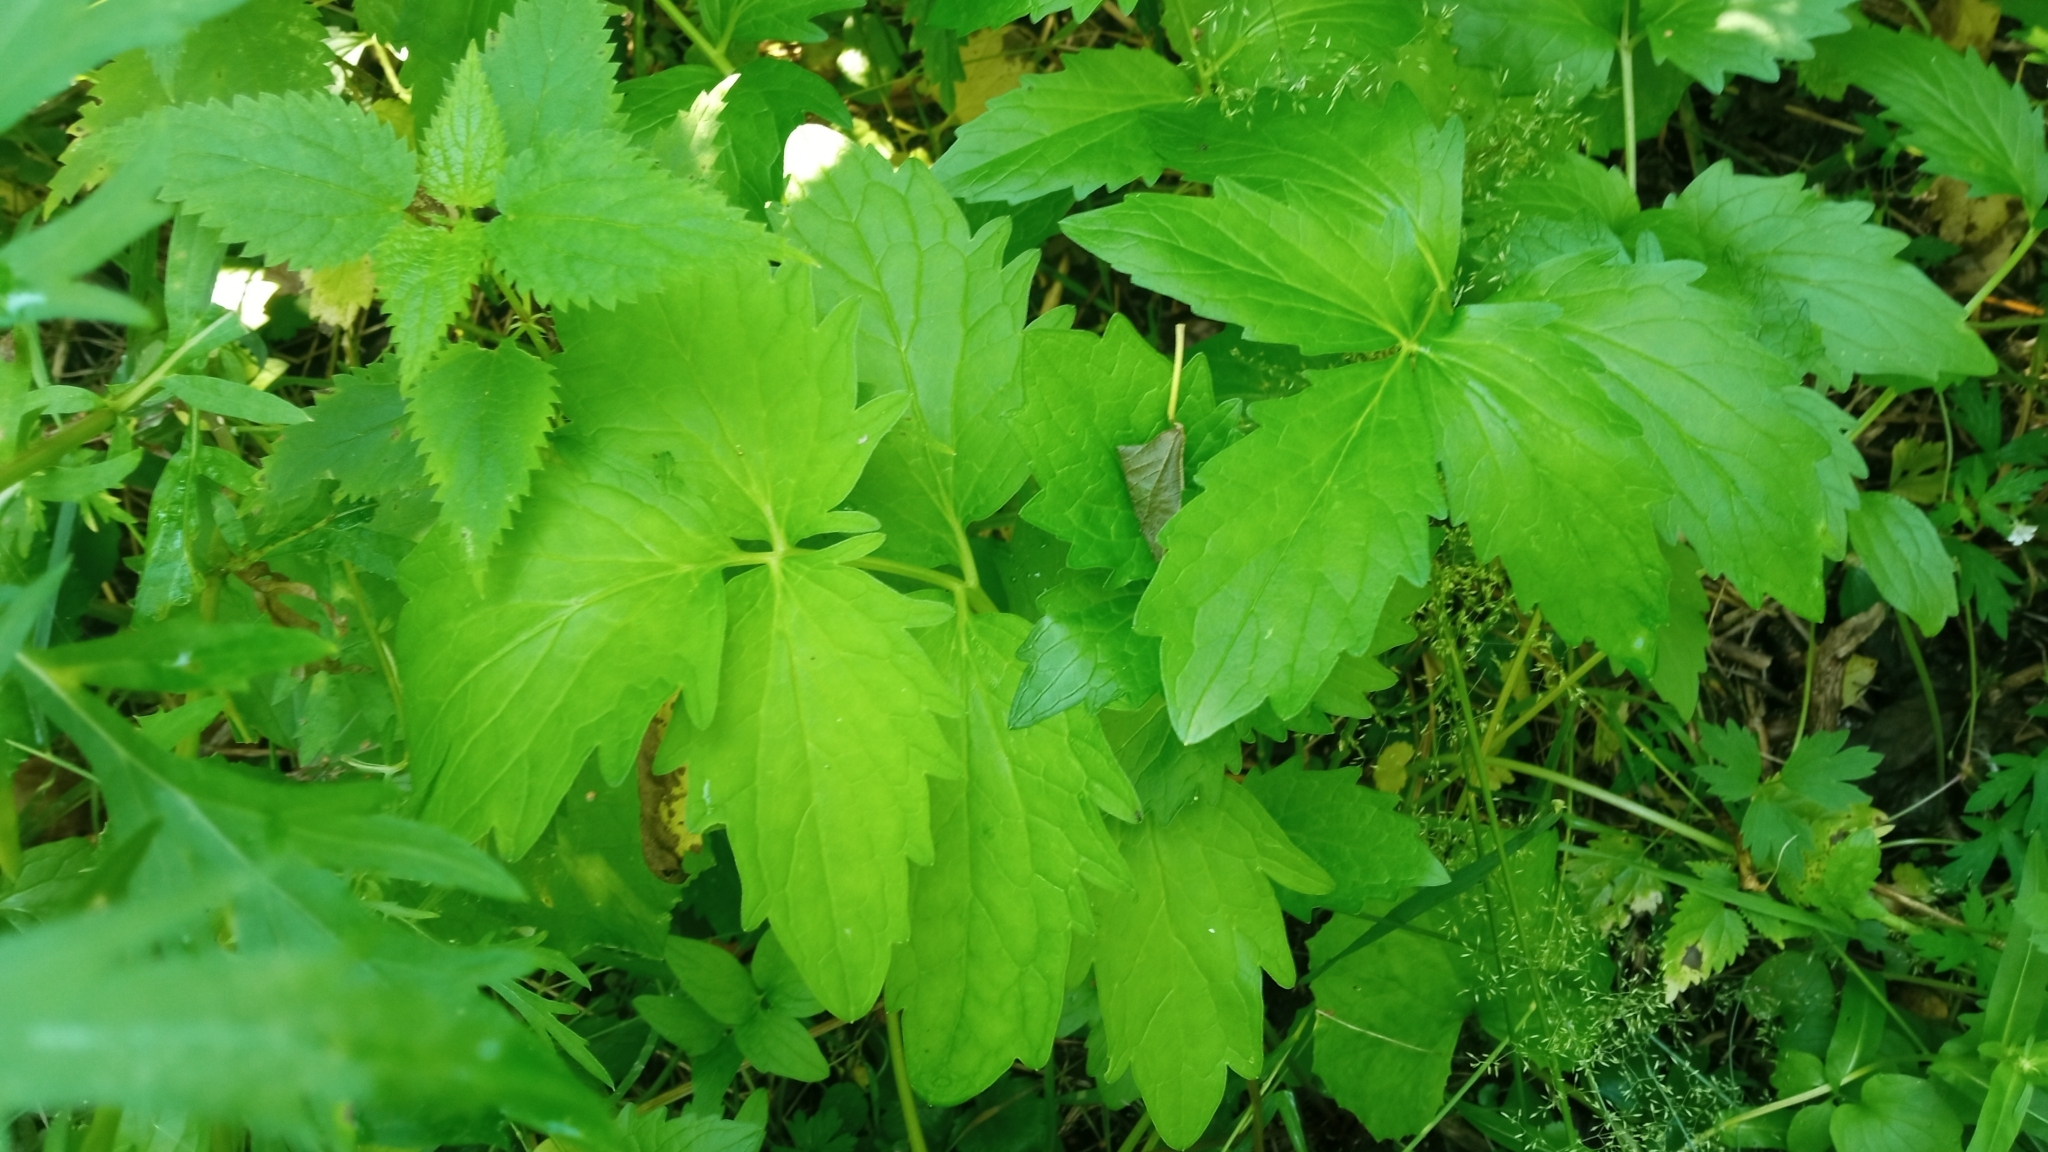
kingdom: Plantae
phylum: Tracheophyta
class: Magnoliopsida
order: Dipsacales
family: Caprifoliaceae
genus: Valeriana
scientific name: Valeriana wolgensis
